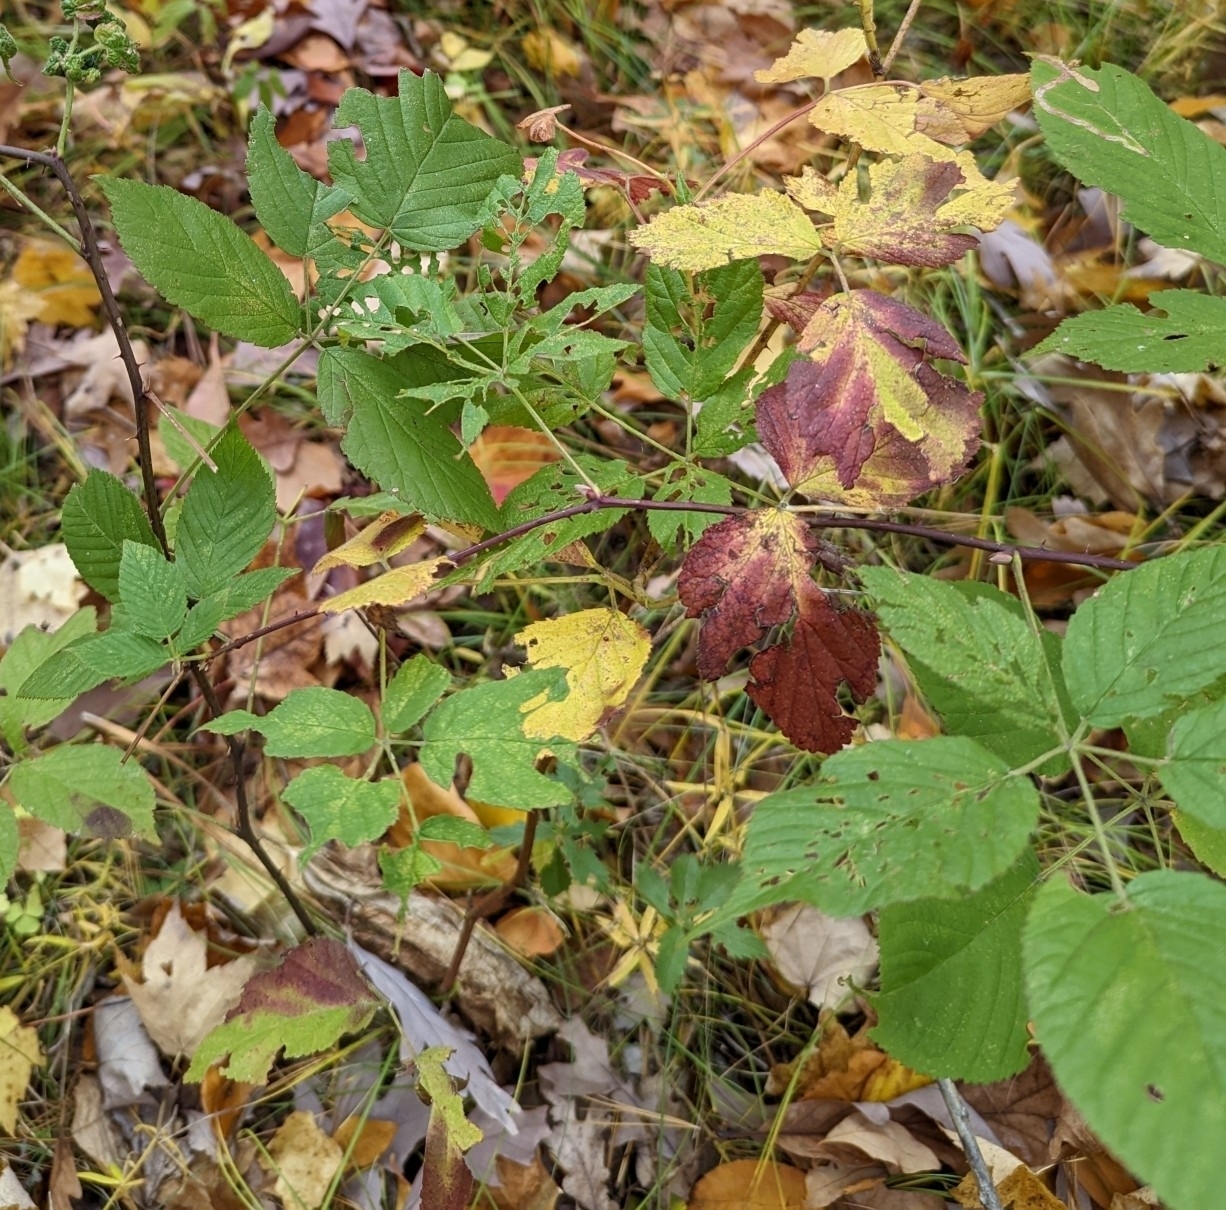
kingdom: Plantae
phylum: Tracheophyta
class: Magnoliopsida
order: Rosales
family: Rosaceae
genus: Rubus
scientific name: Rubus allegheniensis
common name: Allegheny blackberry
